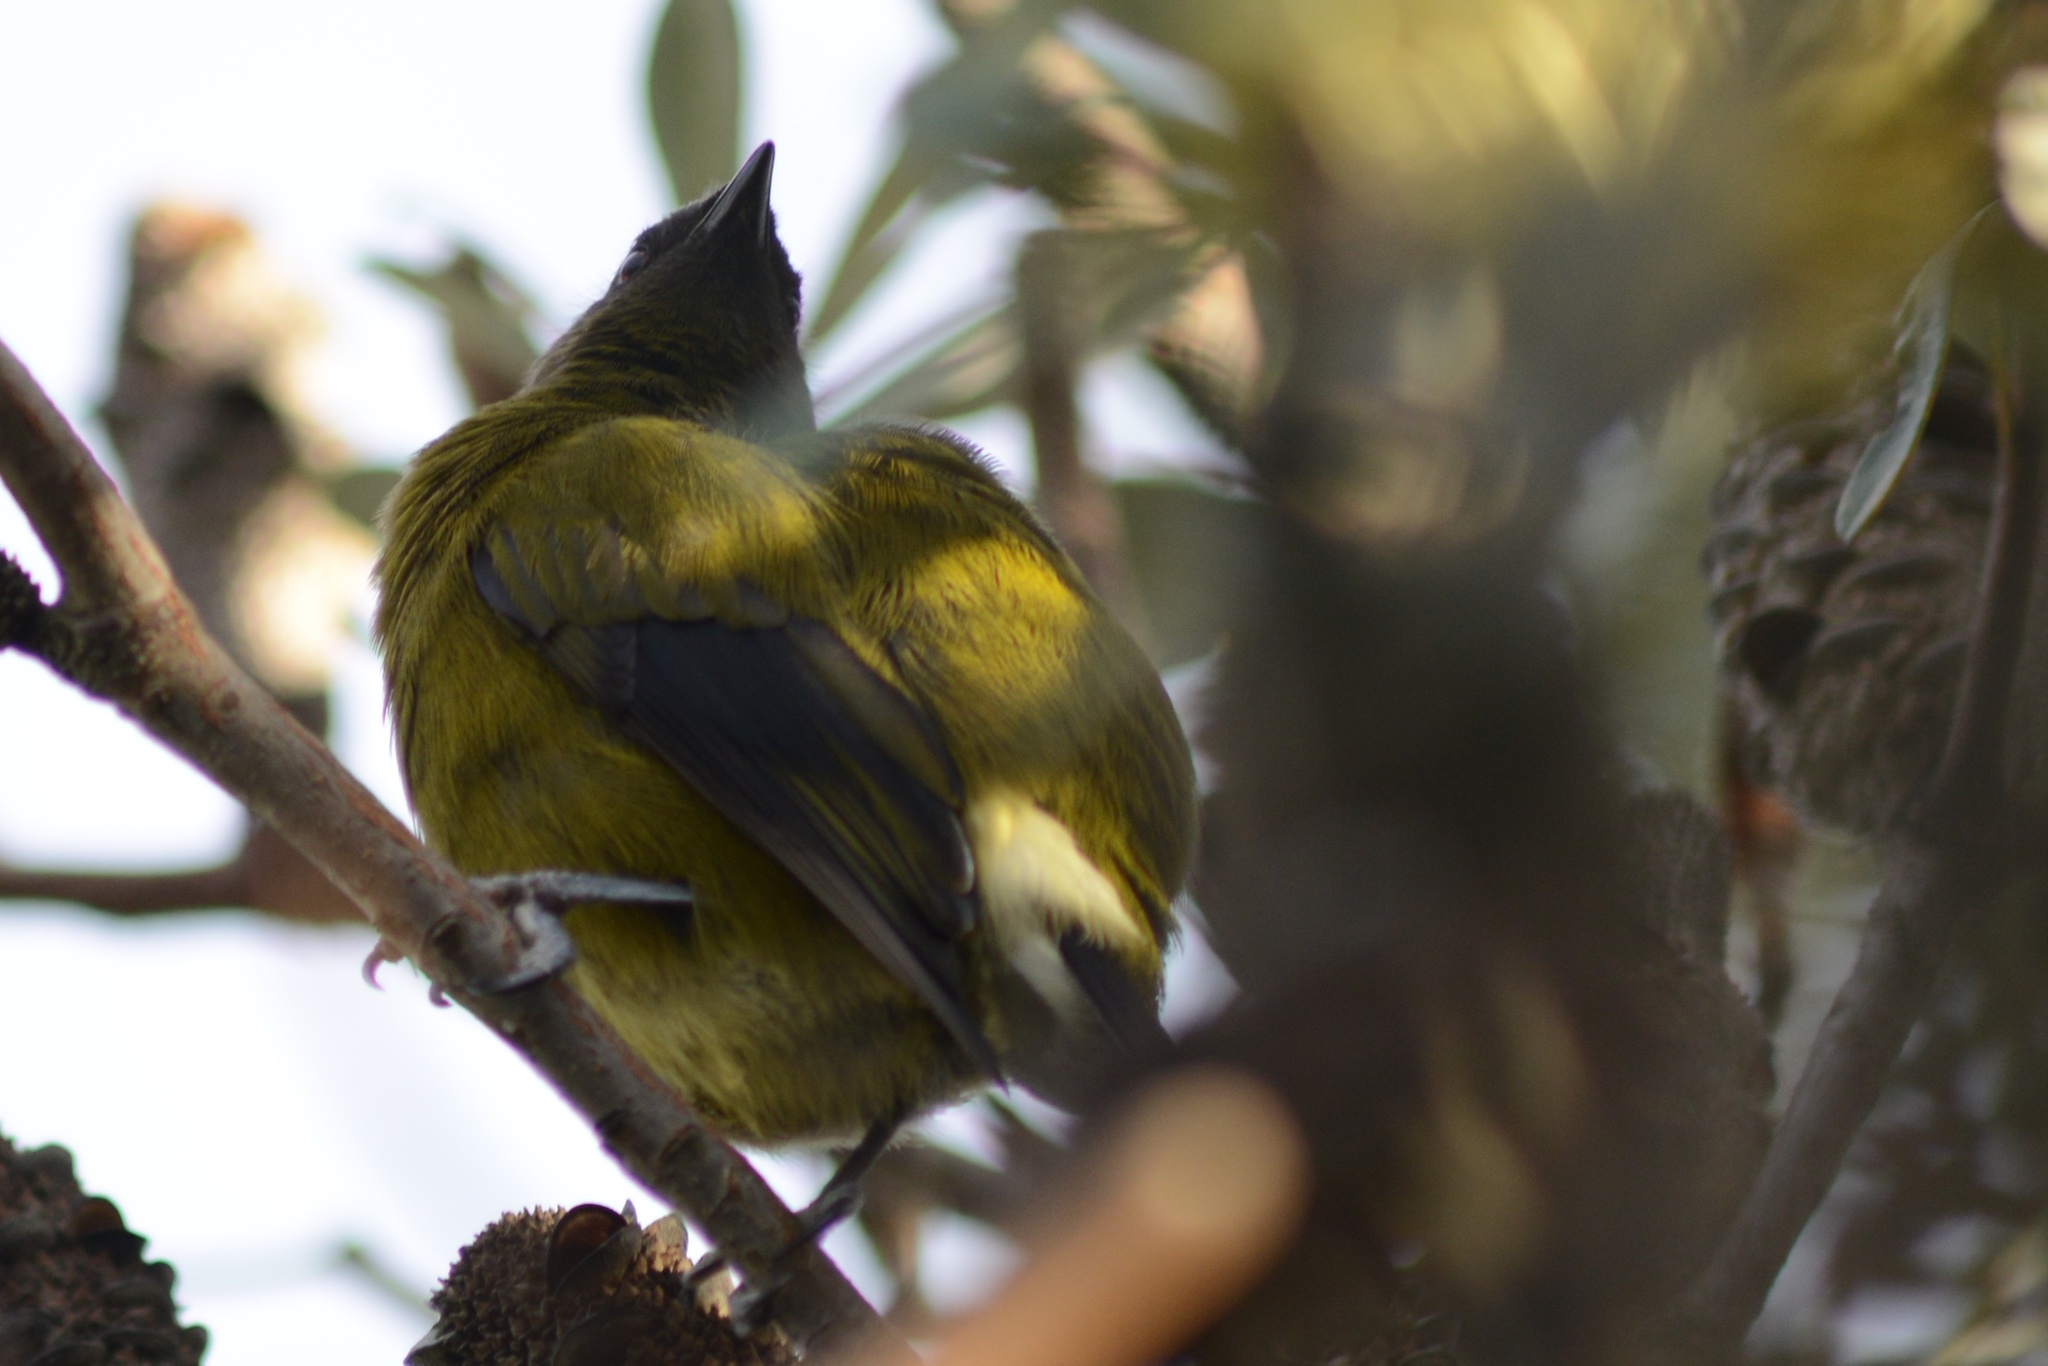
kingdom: Animalia
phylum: Chordata
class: Aves
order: Passeriformes
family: Meliphagidae
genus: Anthornis
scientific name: Anthornis melanura
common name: New zealand bellbird
